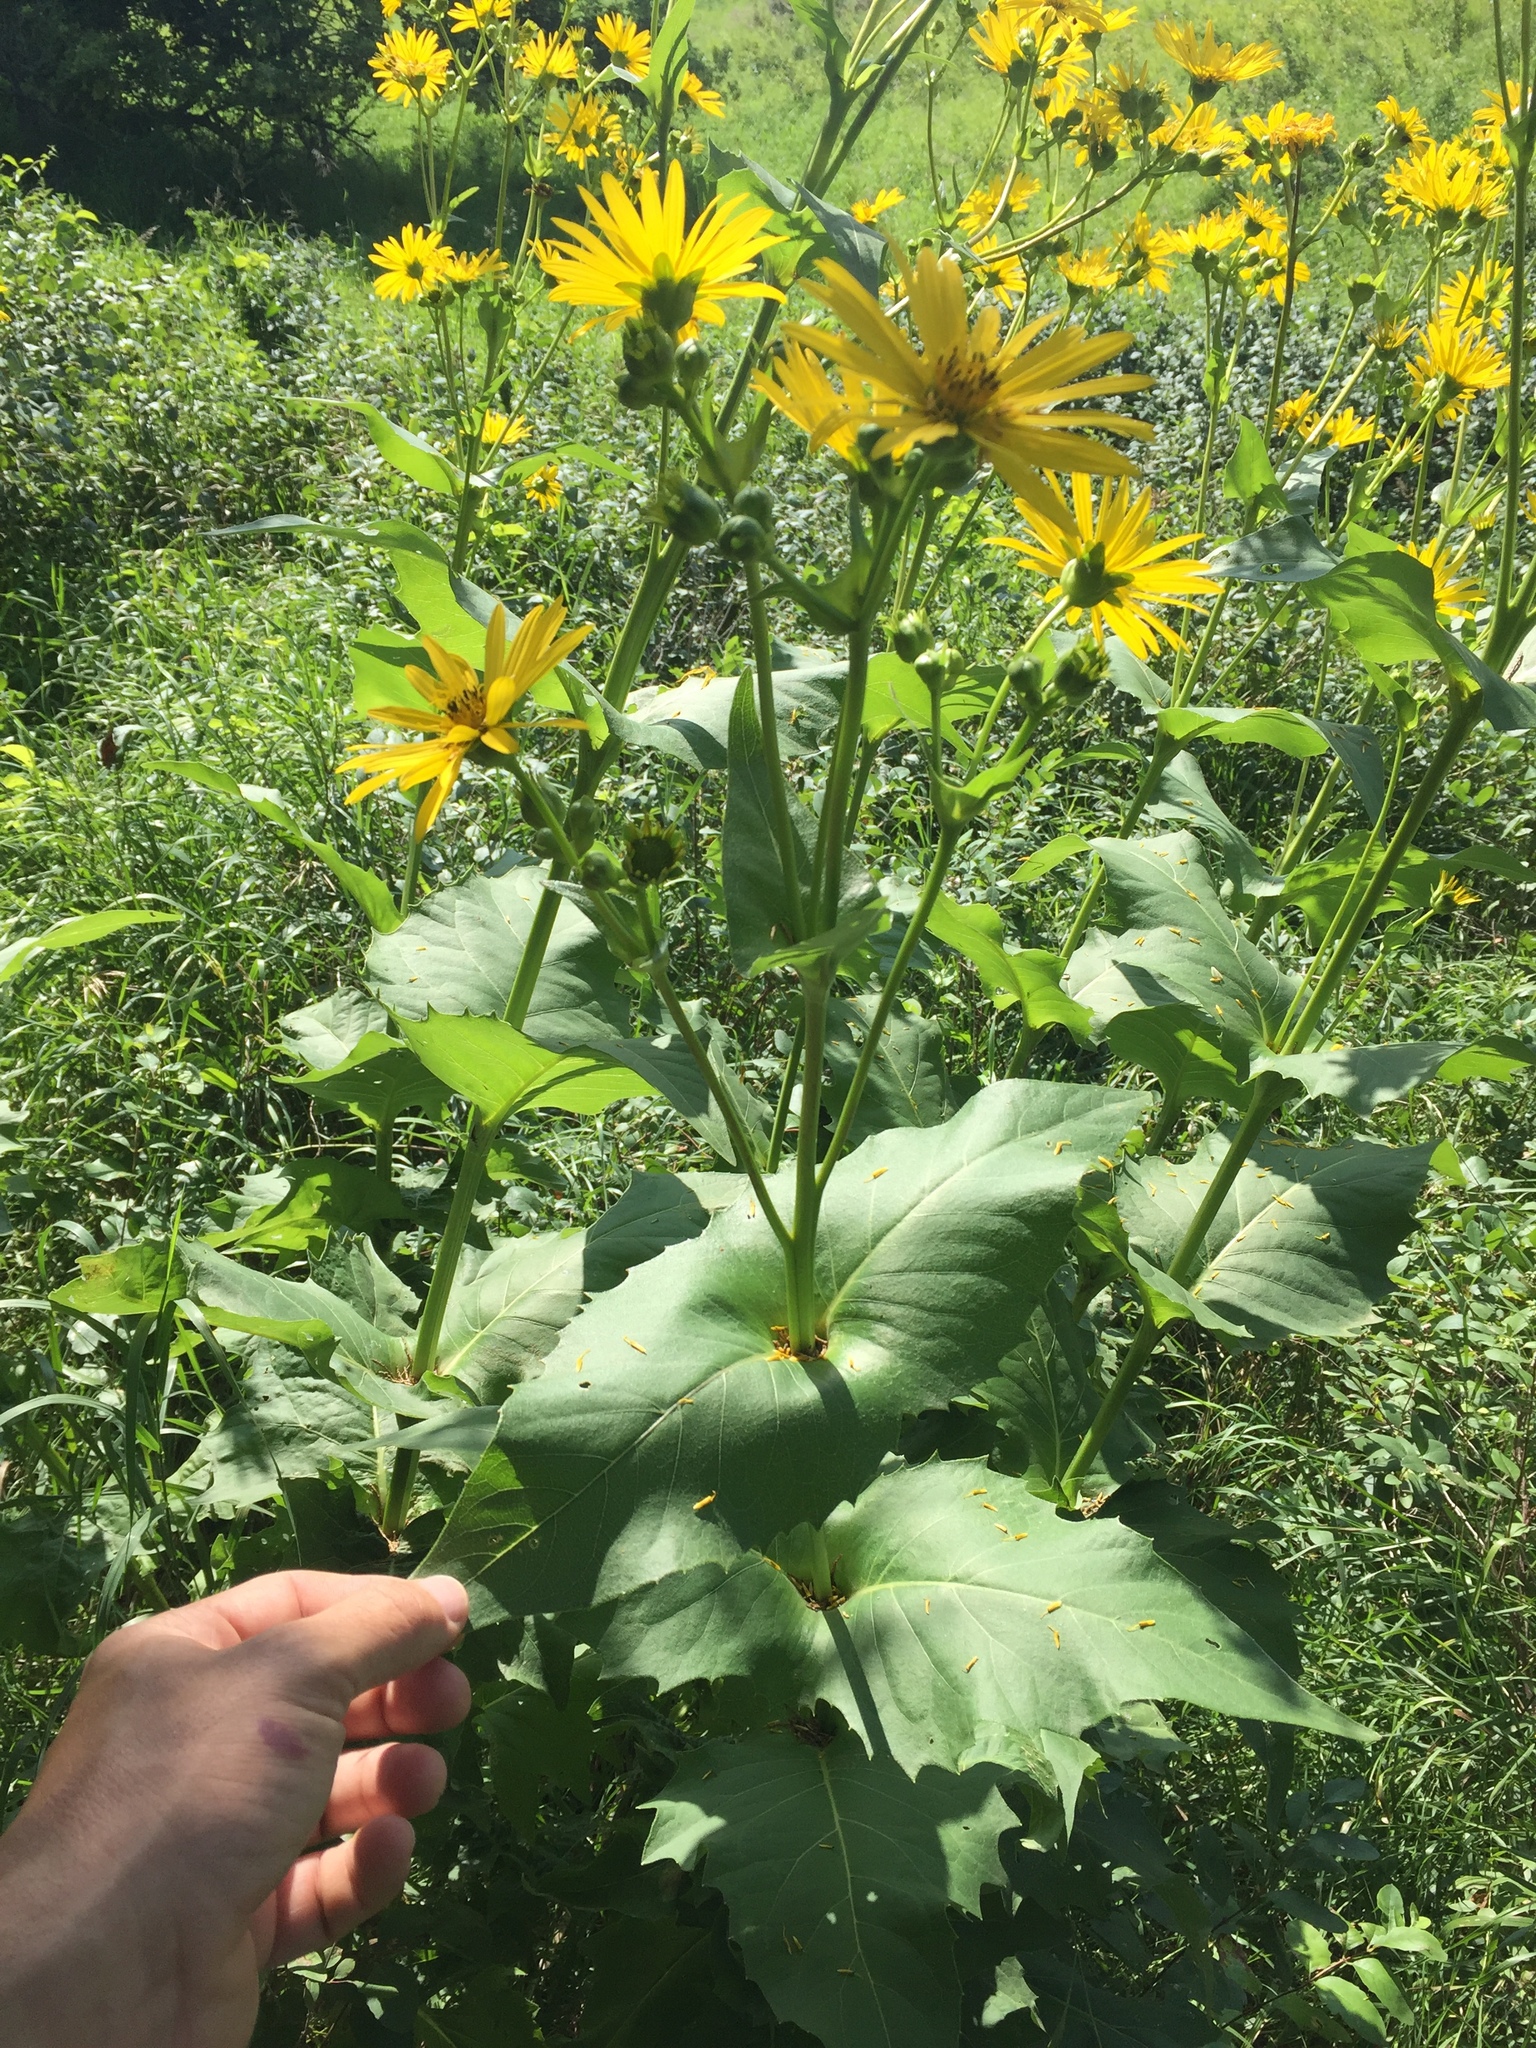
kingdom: Plantae
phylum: Tracheophyta
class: Magnoliopsida
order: Asterales
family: Asteraceae
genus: Silphium
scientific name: Silphium perfoliatum
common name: Cup-plant
